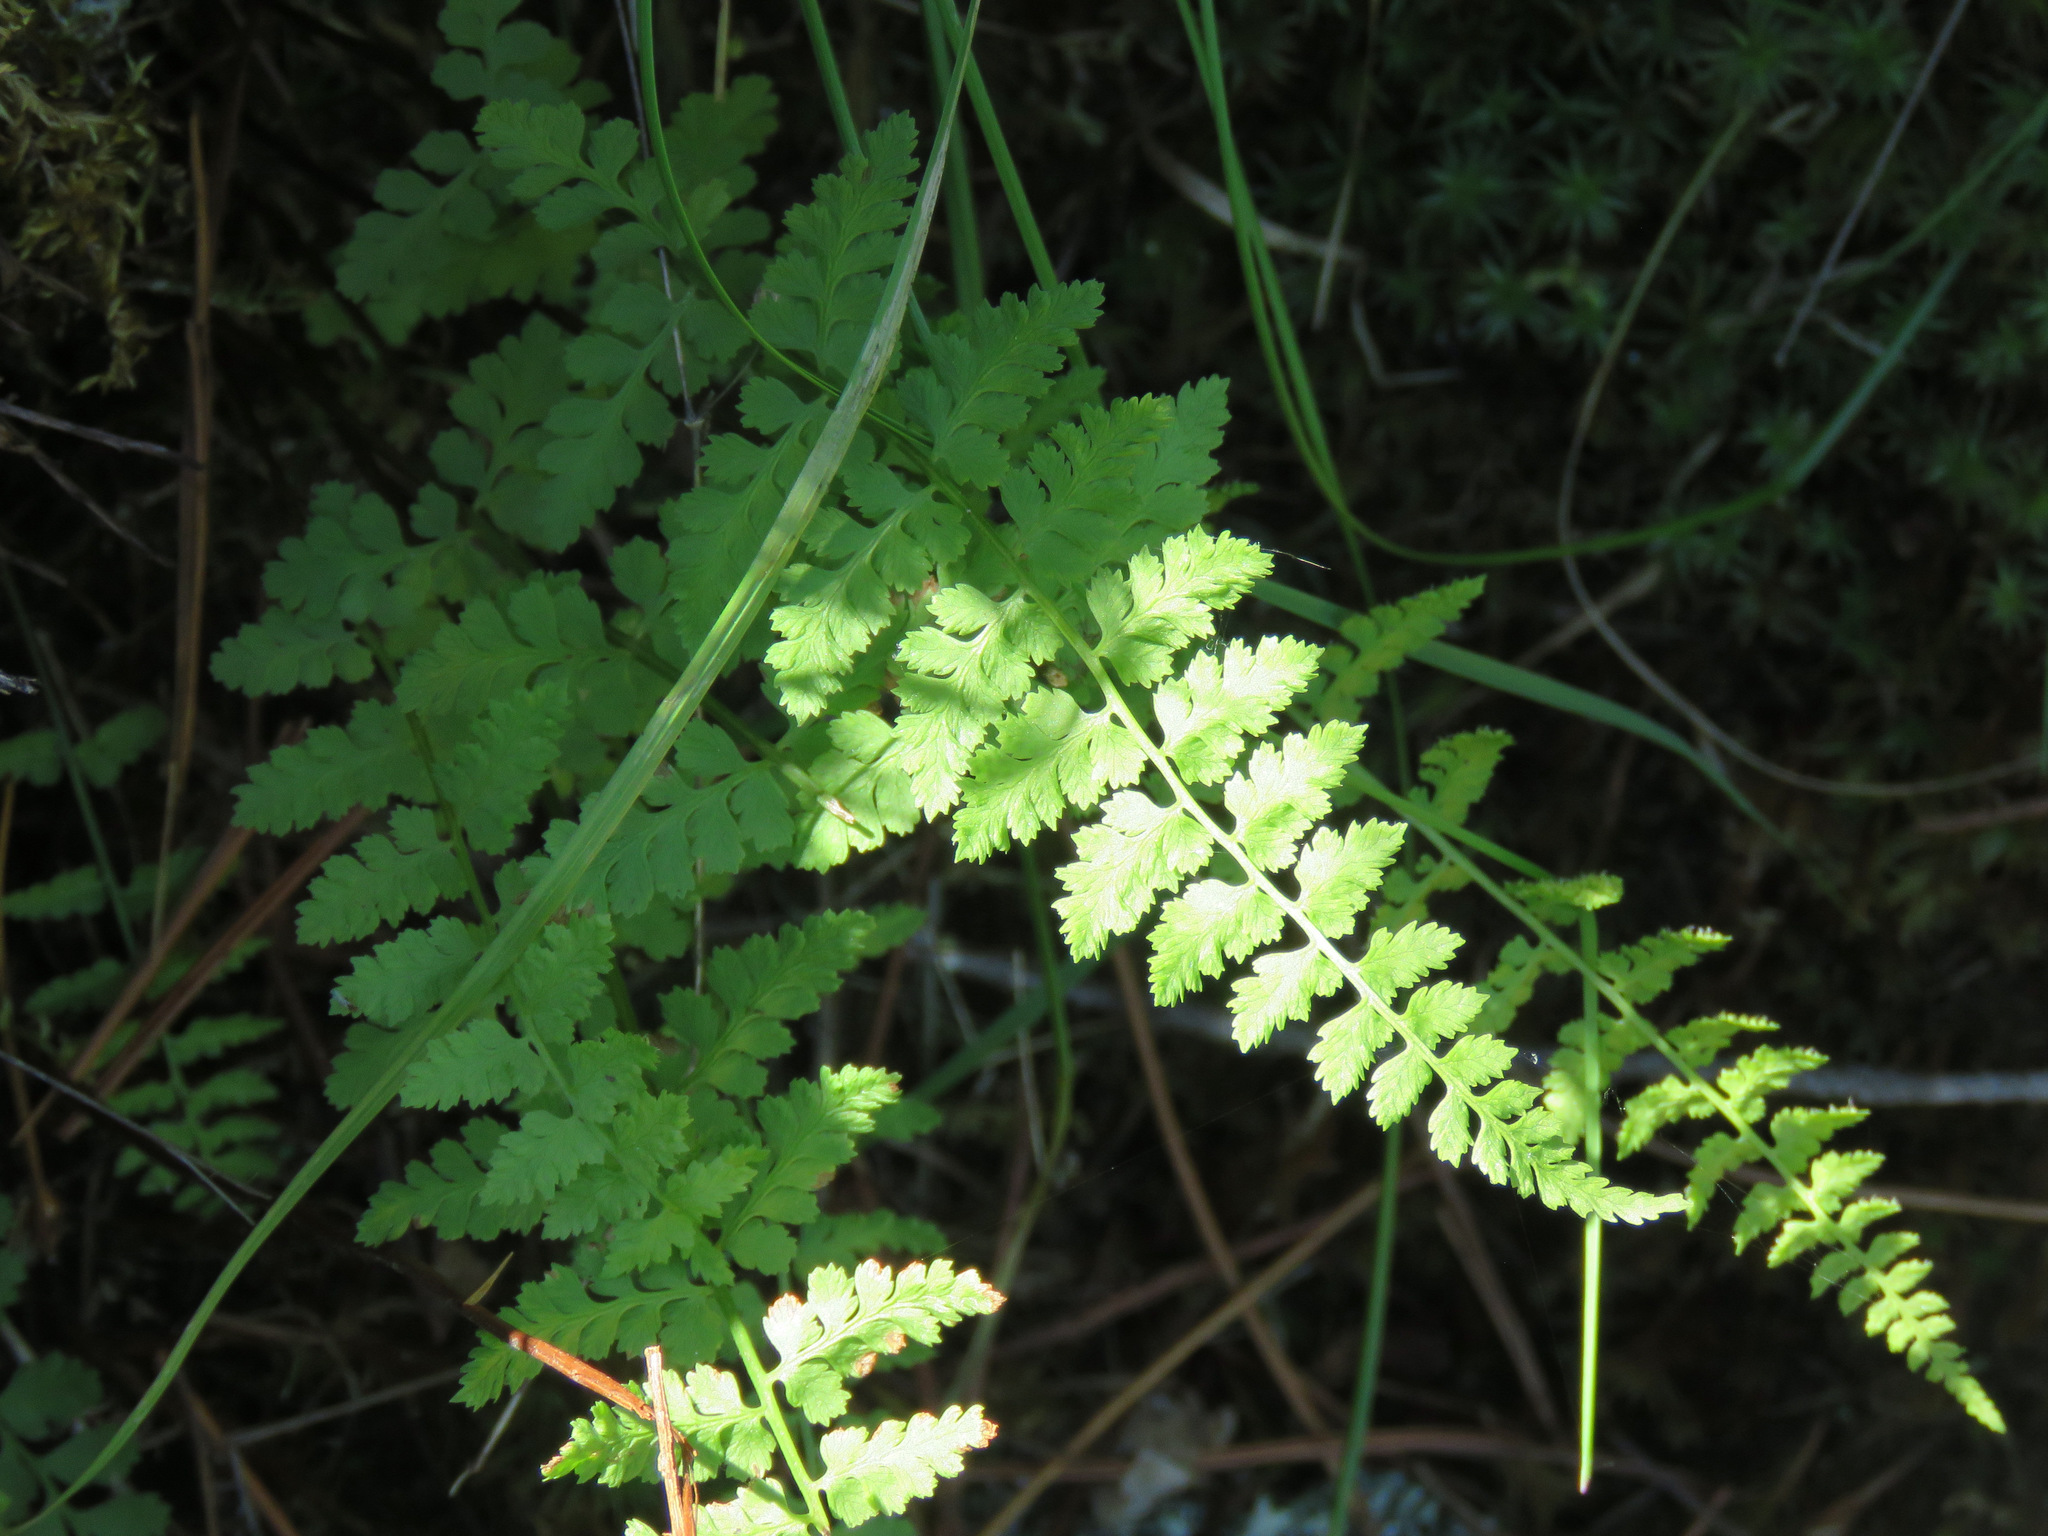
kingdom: Plantae
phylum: Tracheophyta
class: Polypodiopsida
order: Polypodiales
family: Cystopteridaceae
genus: Cystopteris
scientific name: Cystopteris fragilis
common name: Brittle bladder fern
